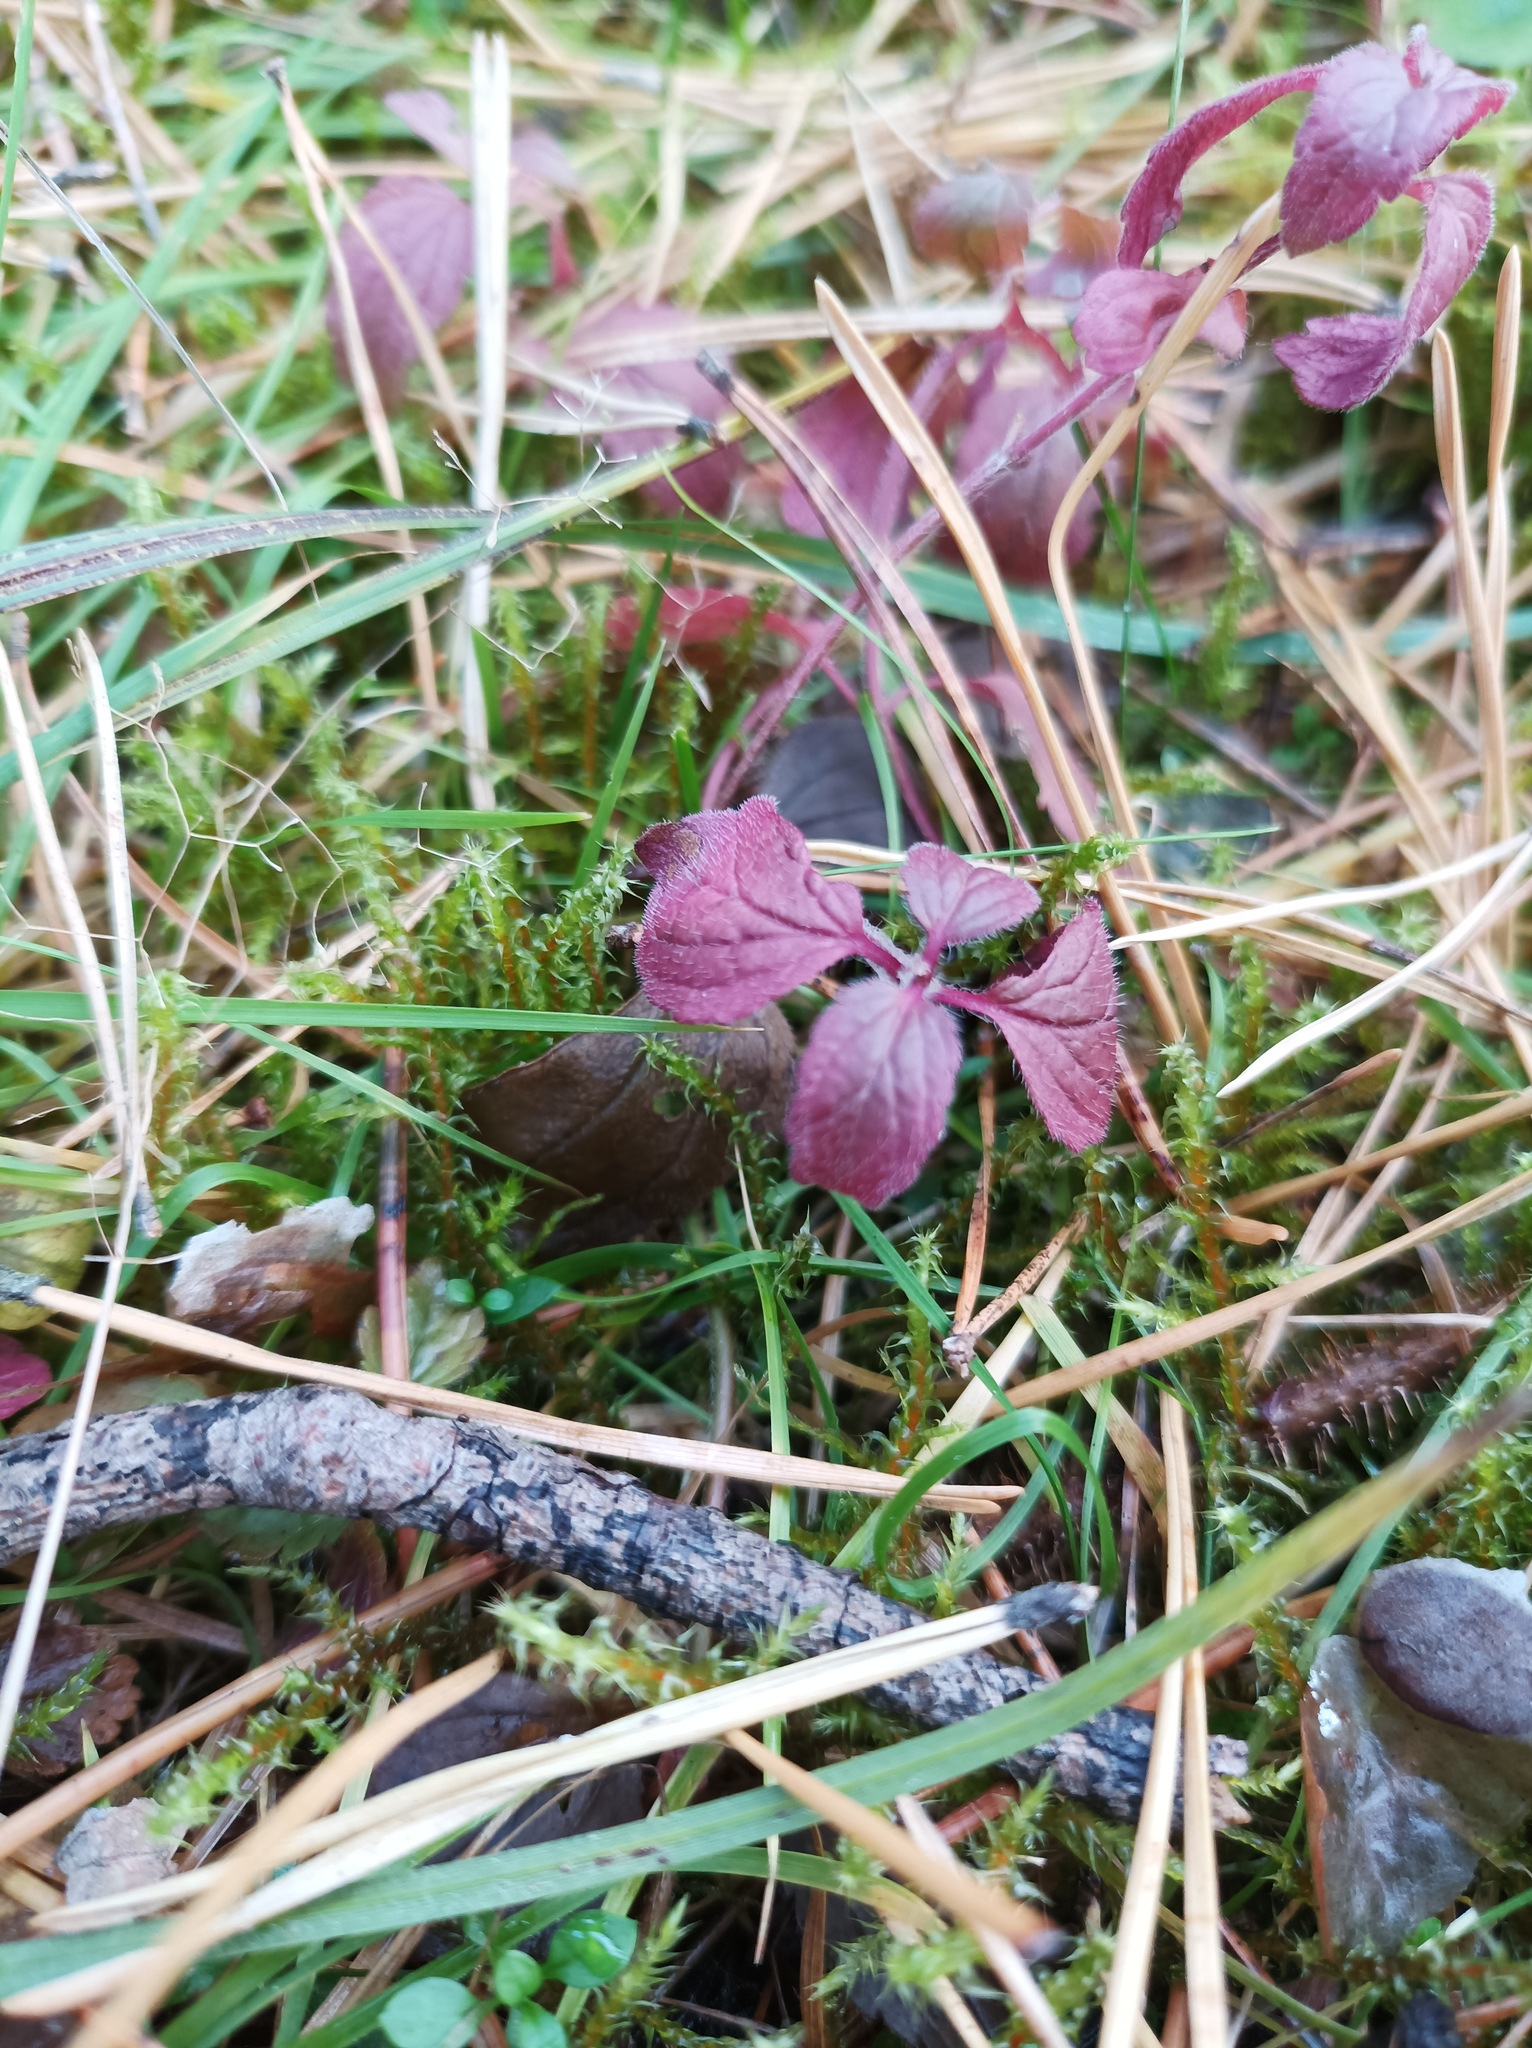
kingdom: Plantae
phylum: Tracheophyta
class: Magnoliopsida
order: Lamiales
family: Plantaginaceae
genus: Veronica
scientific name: Veronica chamaedrys
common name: Germander speedwell
